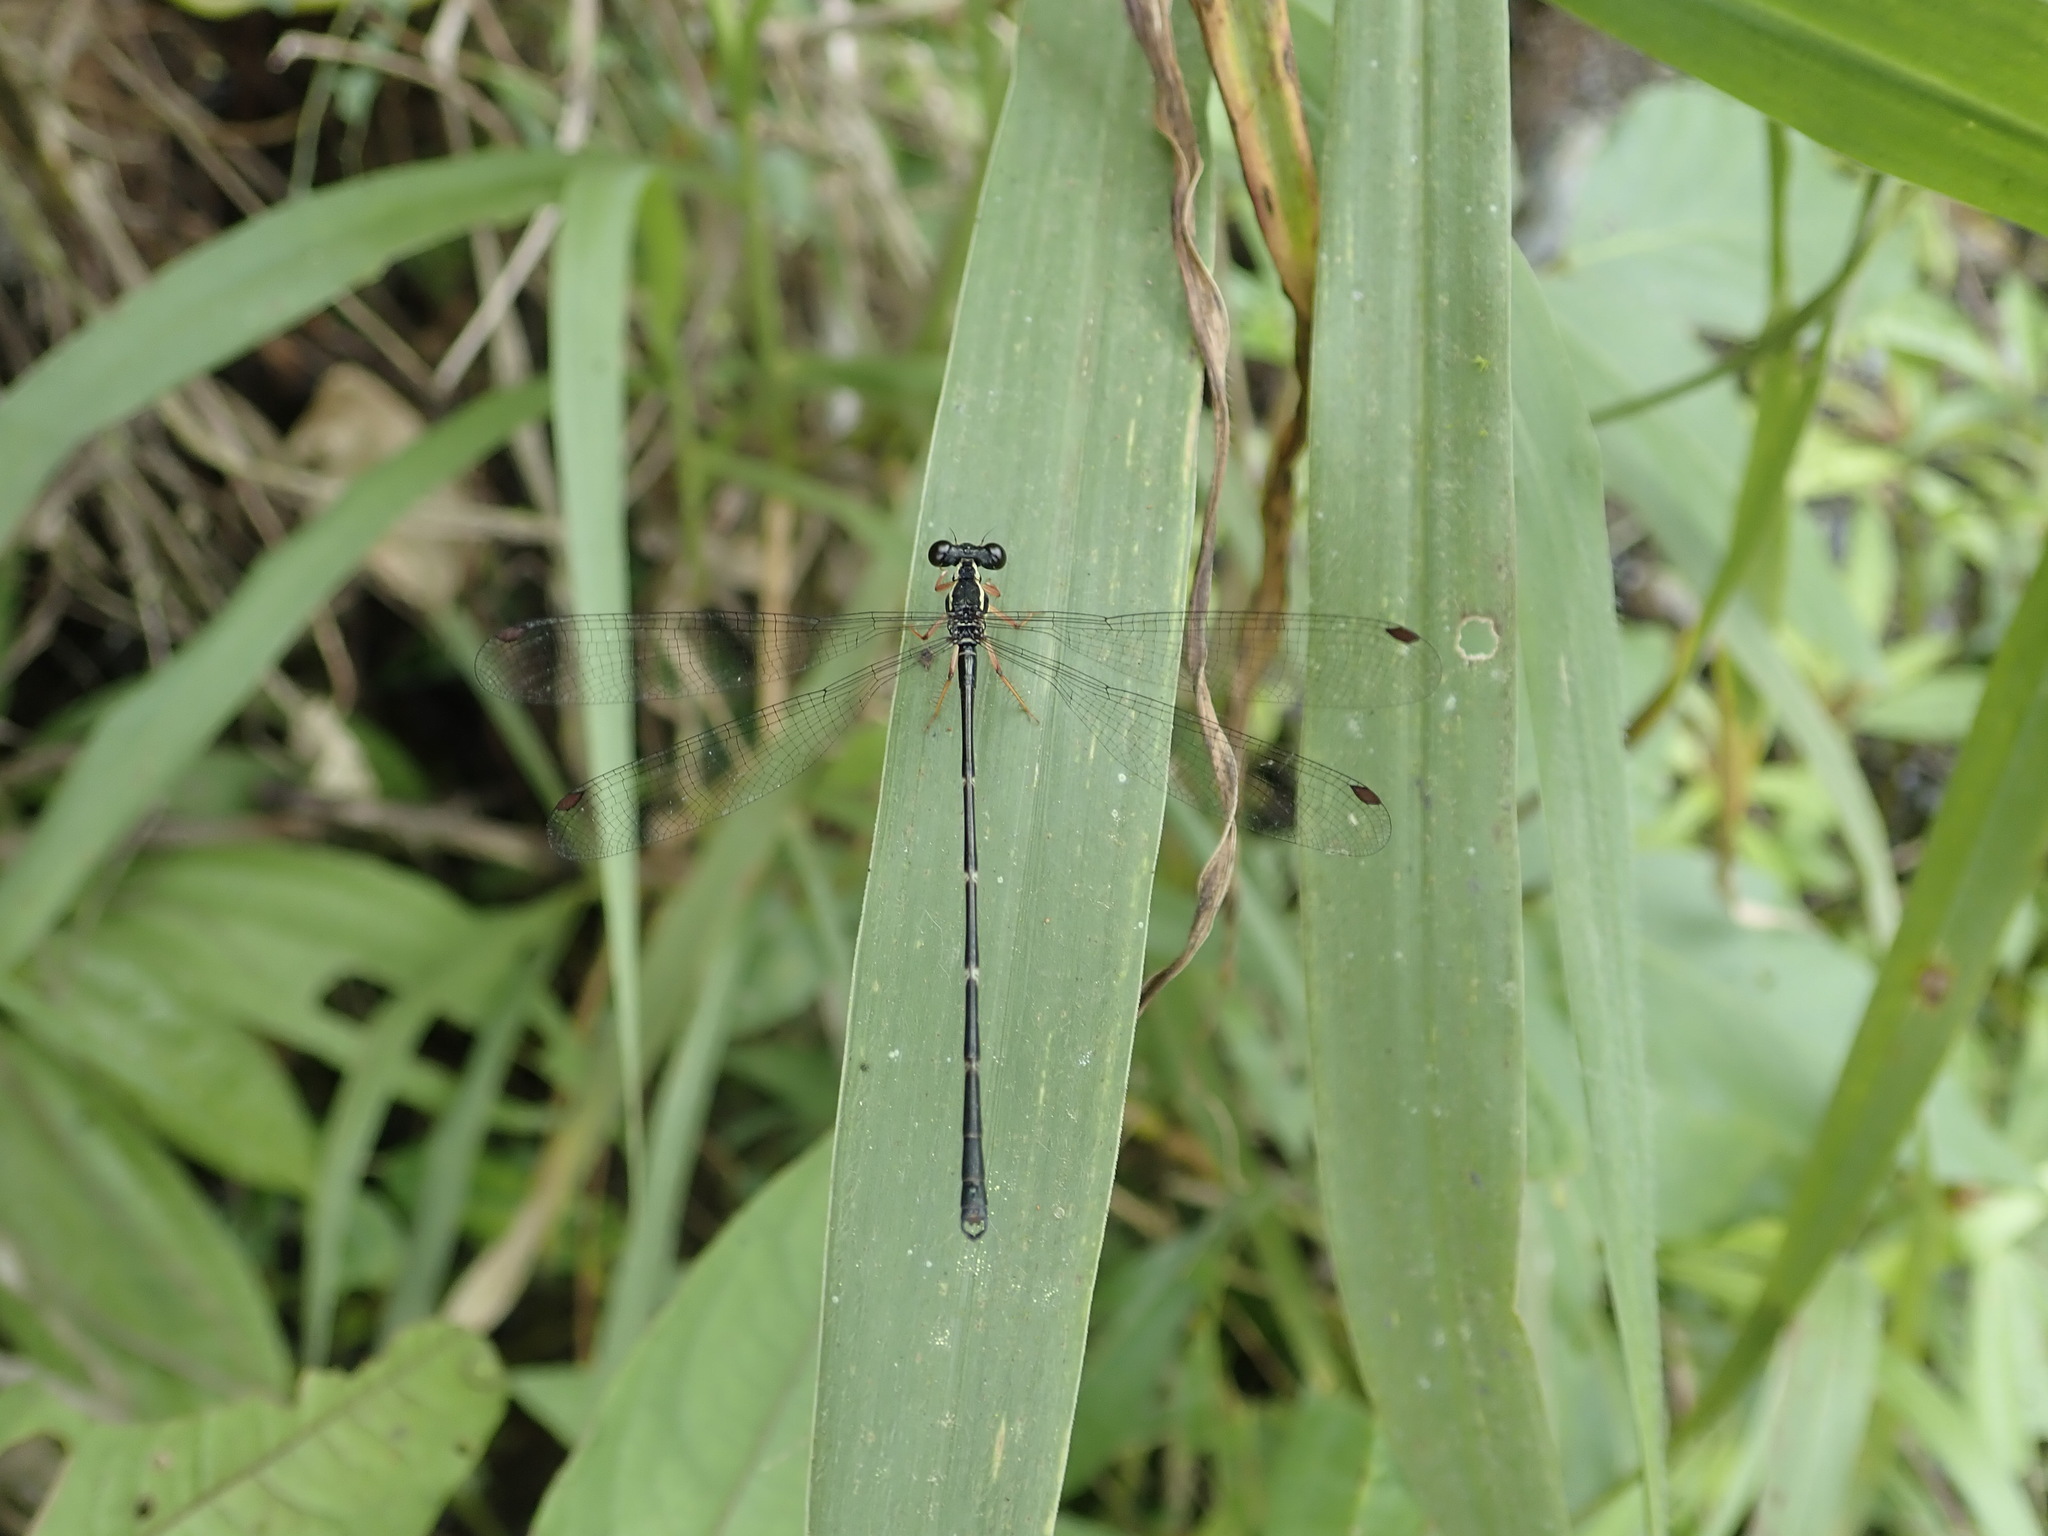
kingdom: Animalia
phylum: Arthropoda
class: Insecta
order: Odonata
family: Megapodagrionidae
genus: Rhipidolestes
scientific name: Rhipidolestes aculeatus
